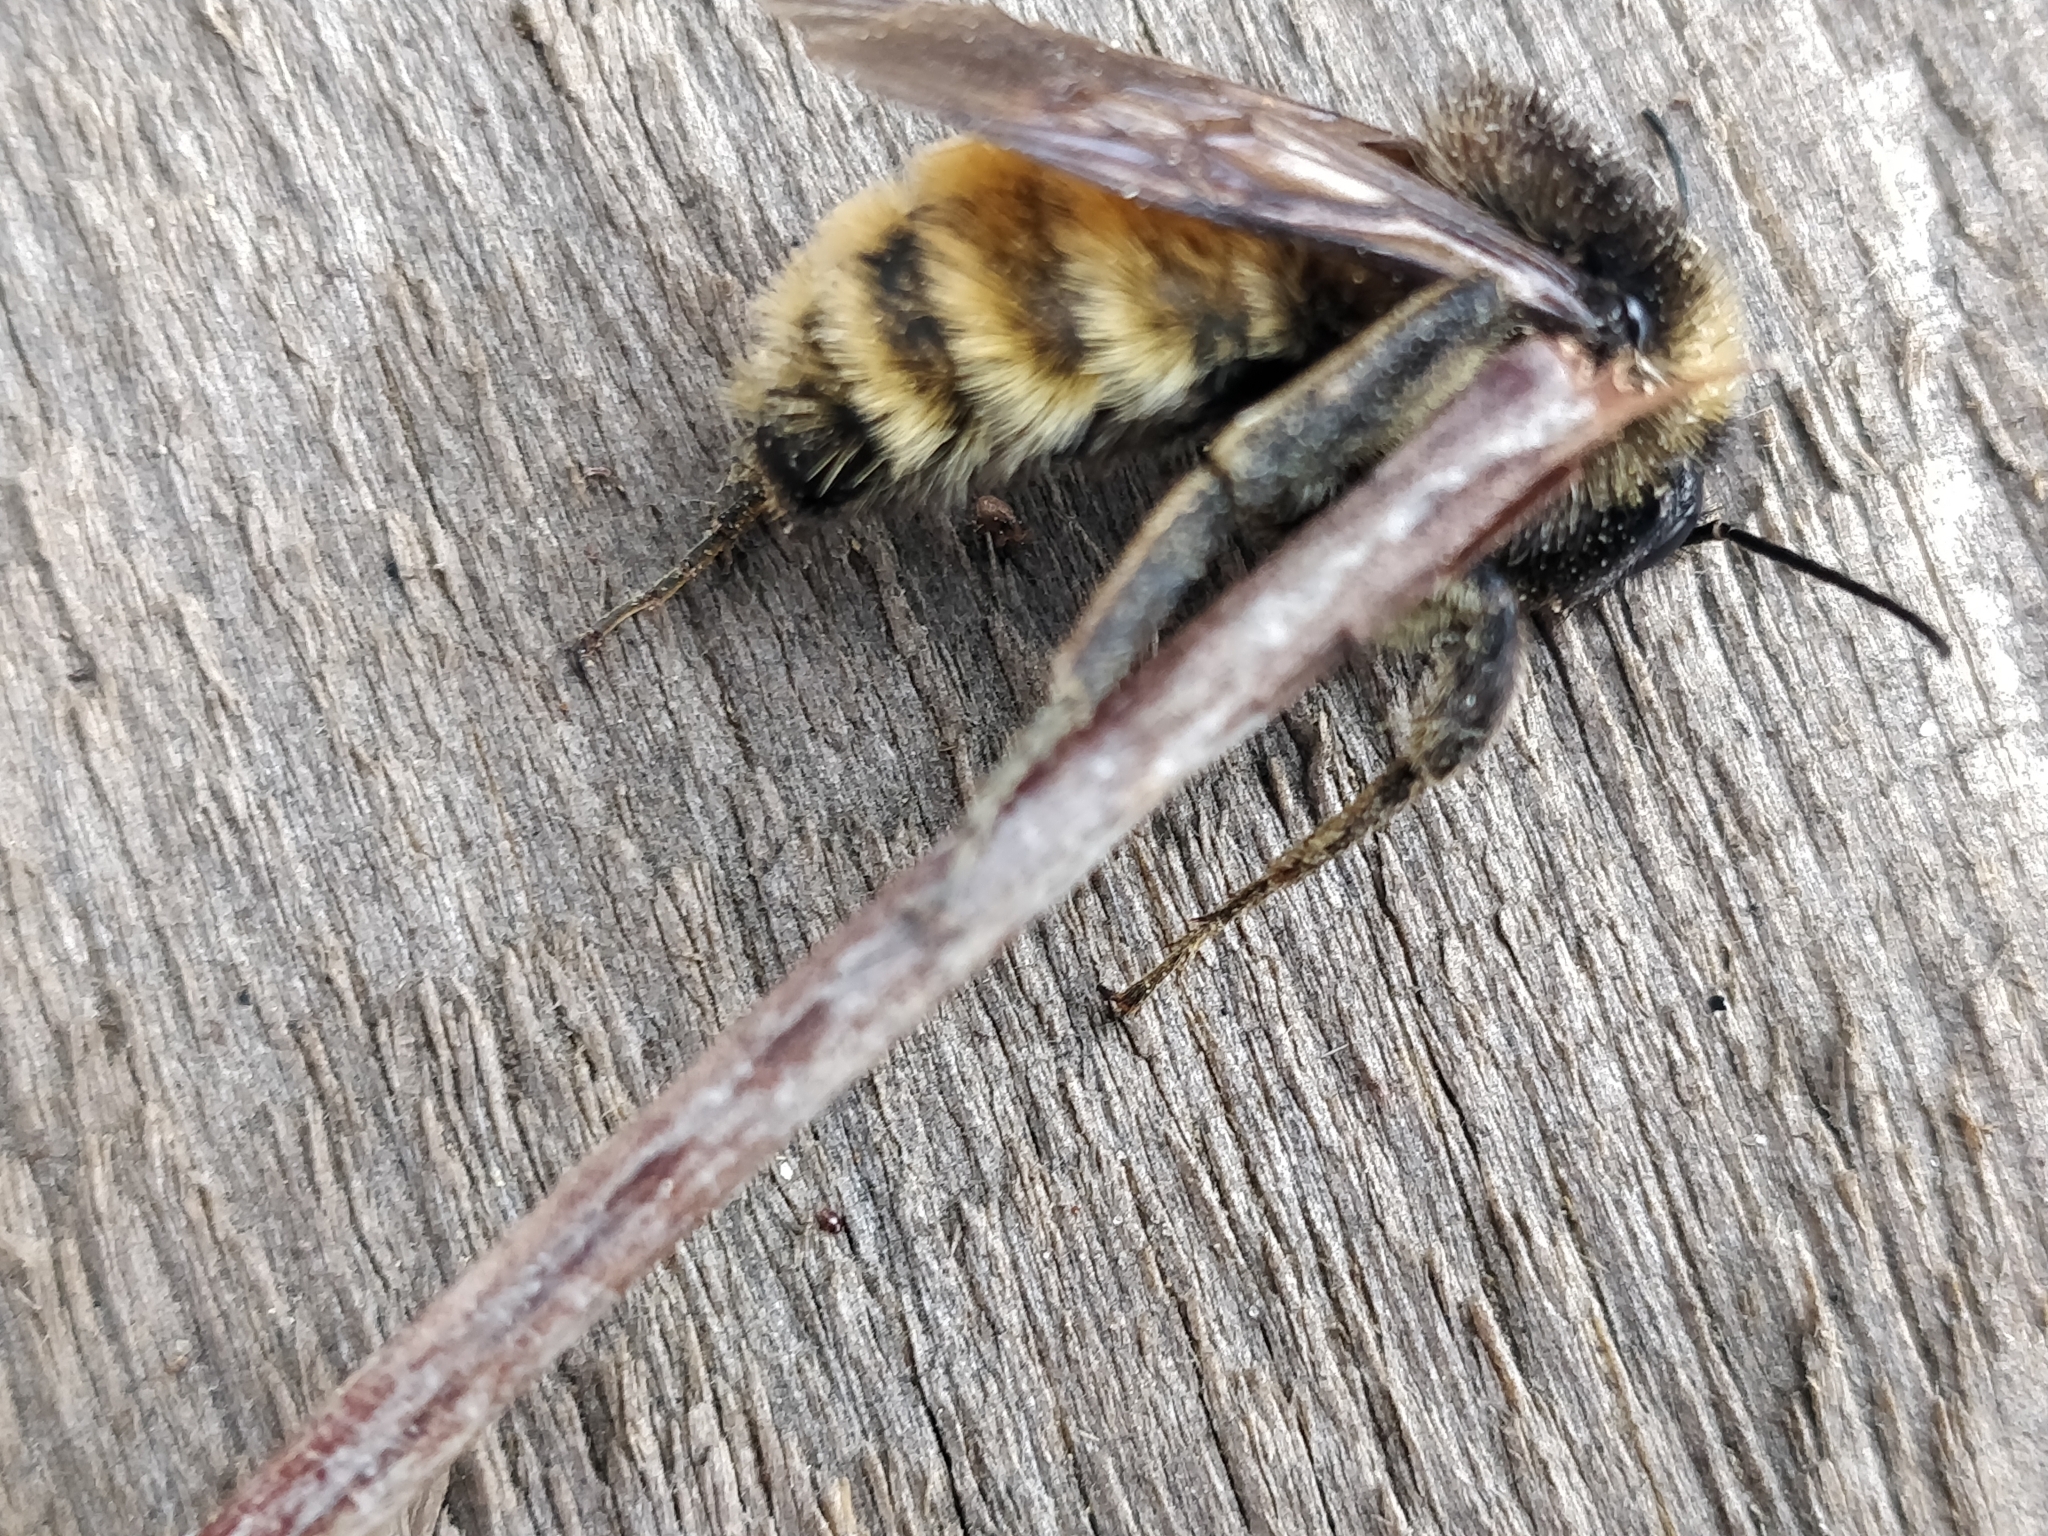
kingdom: Animalia
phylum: Arthropoda
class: Insecta
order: Hymenoptera
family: Apidae
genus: Bombus
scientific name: Bombus pensylvanicus
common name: Bumble bee
